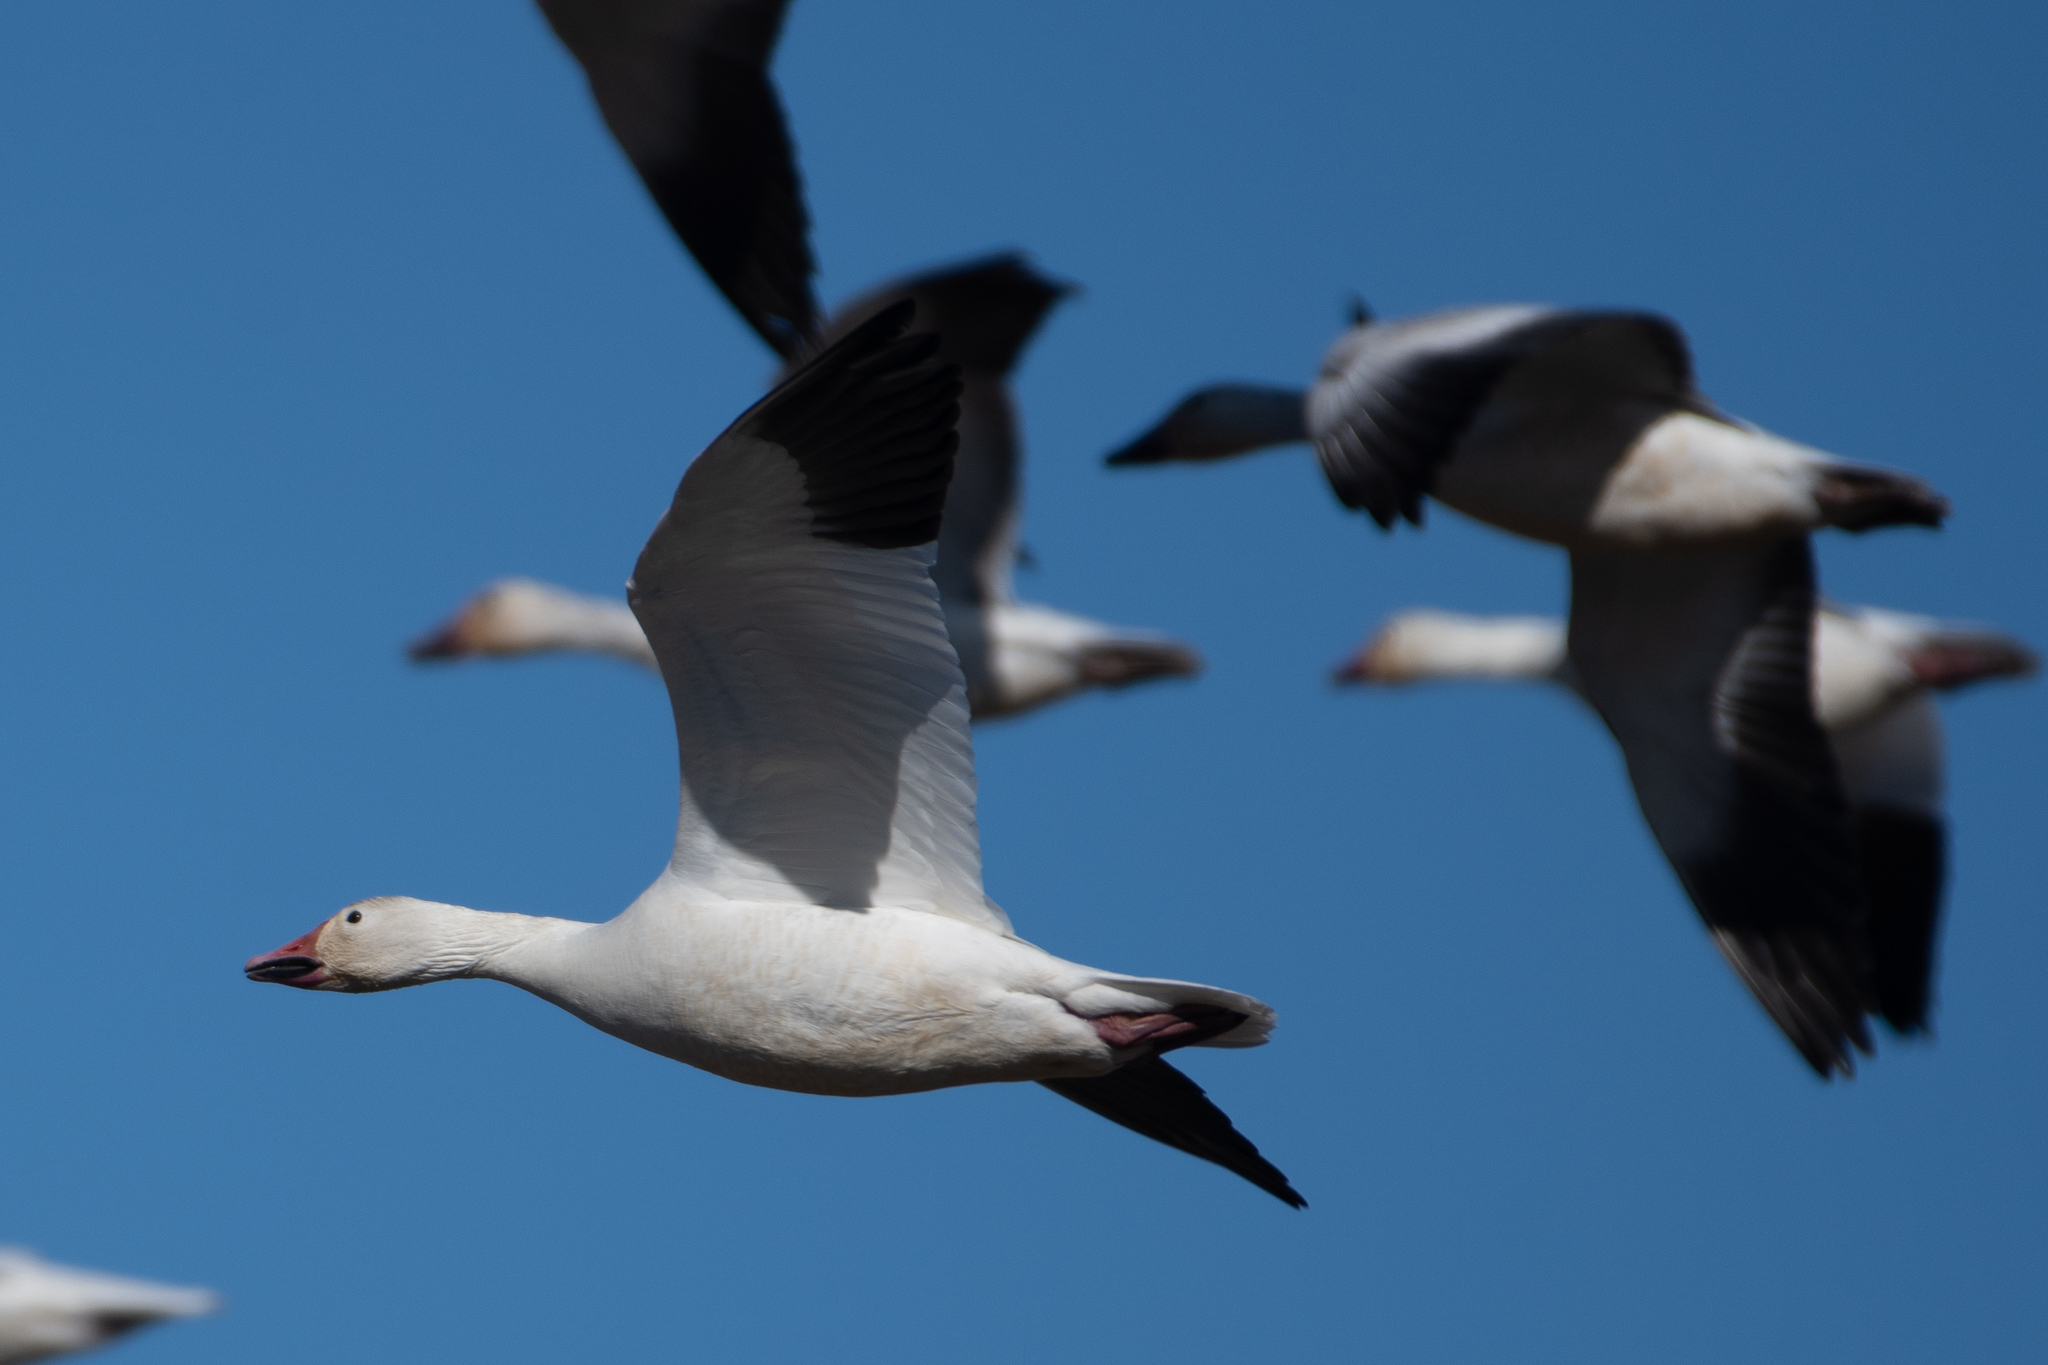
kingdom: Animalia
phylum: Chordata
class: Aves
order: Anseriformes
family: Anatidae
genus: Anser
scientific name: Anser caerulescens
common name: Snow goose
